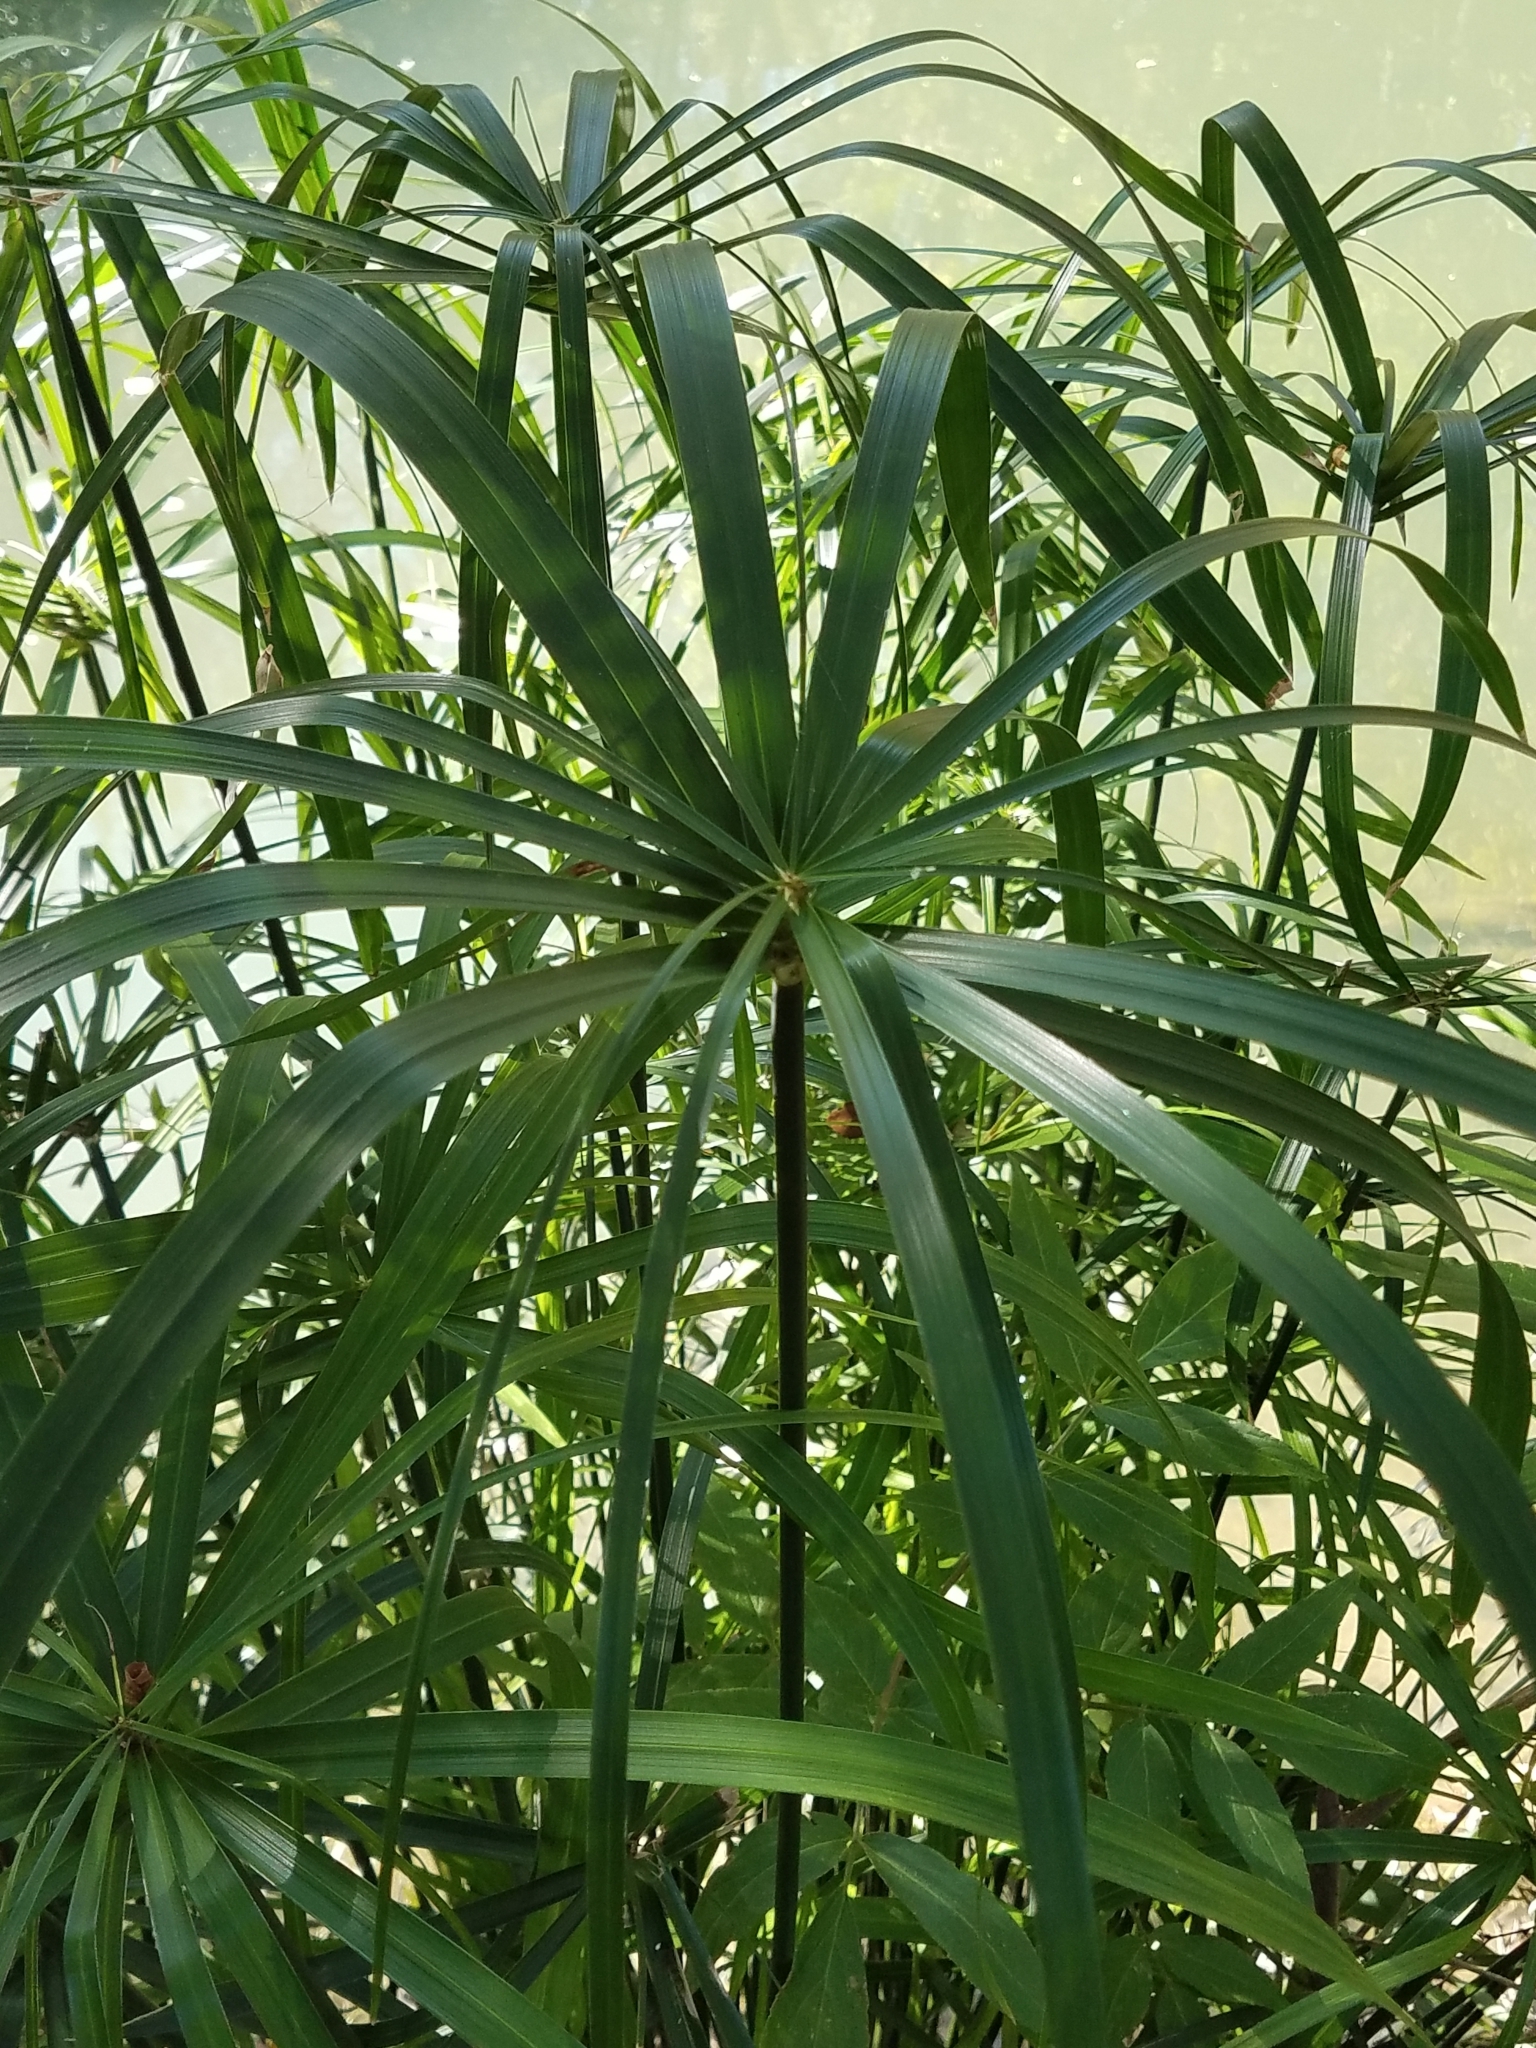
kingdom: Plantae
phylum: Tracheophyta
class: Liliopsida
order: Poales
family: Cyperaceae
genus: Cyperus
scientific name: Cyperus alternifolius
